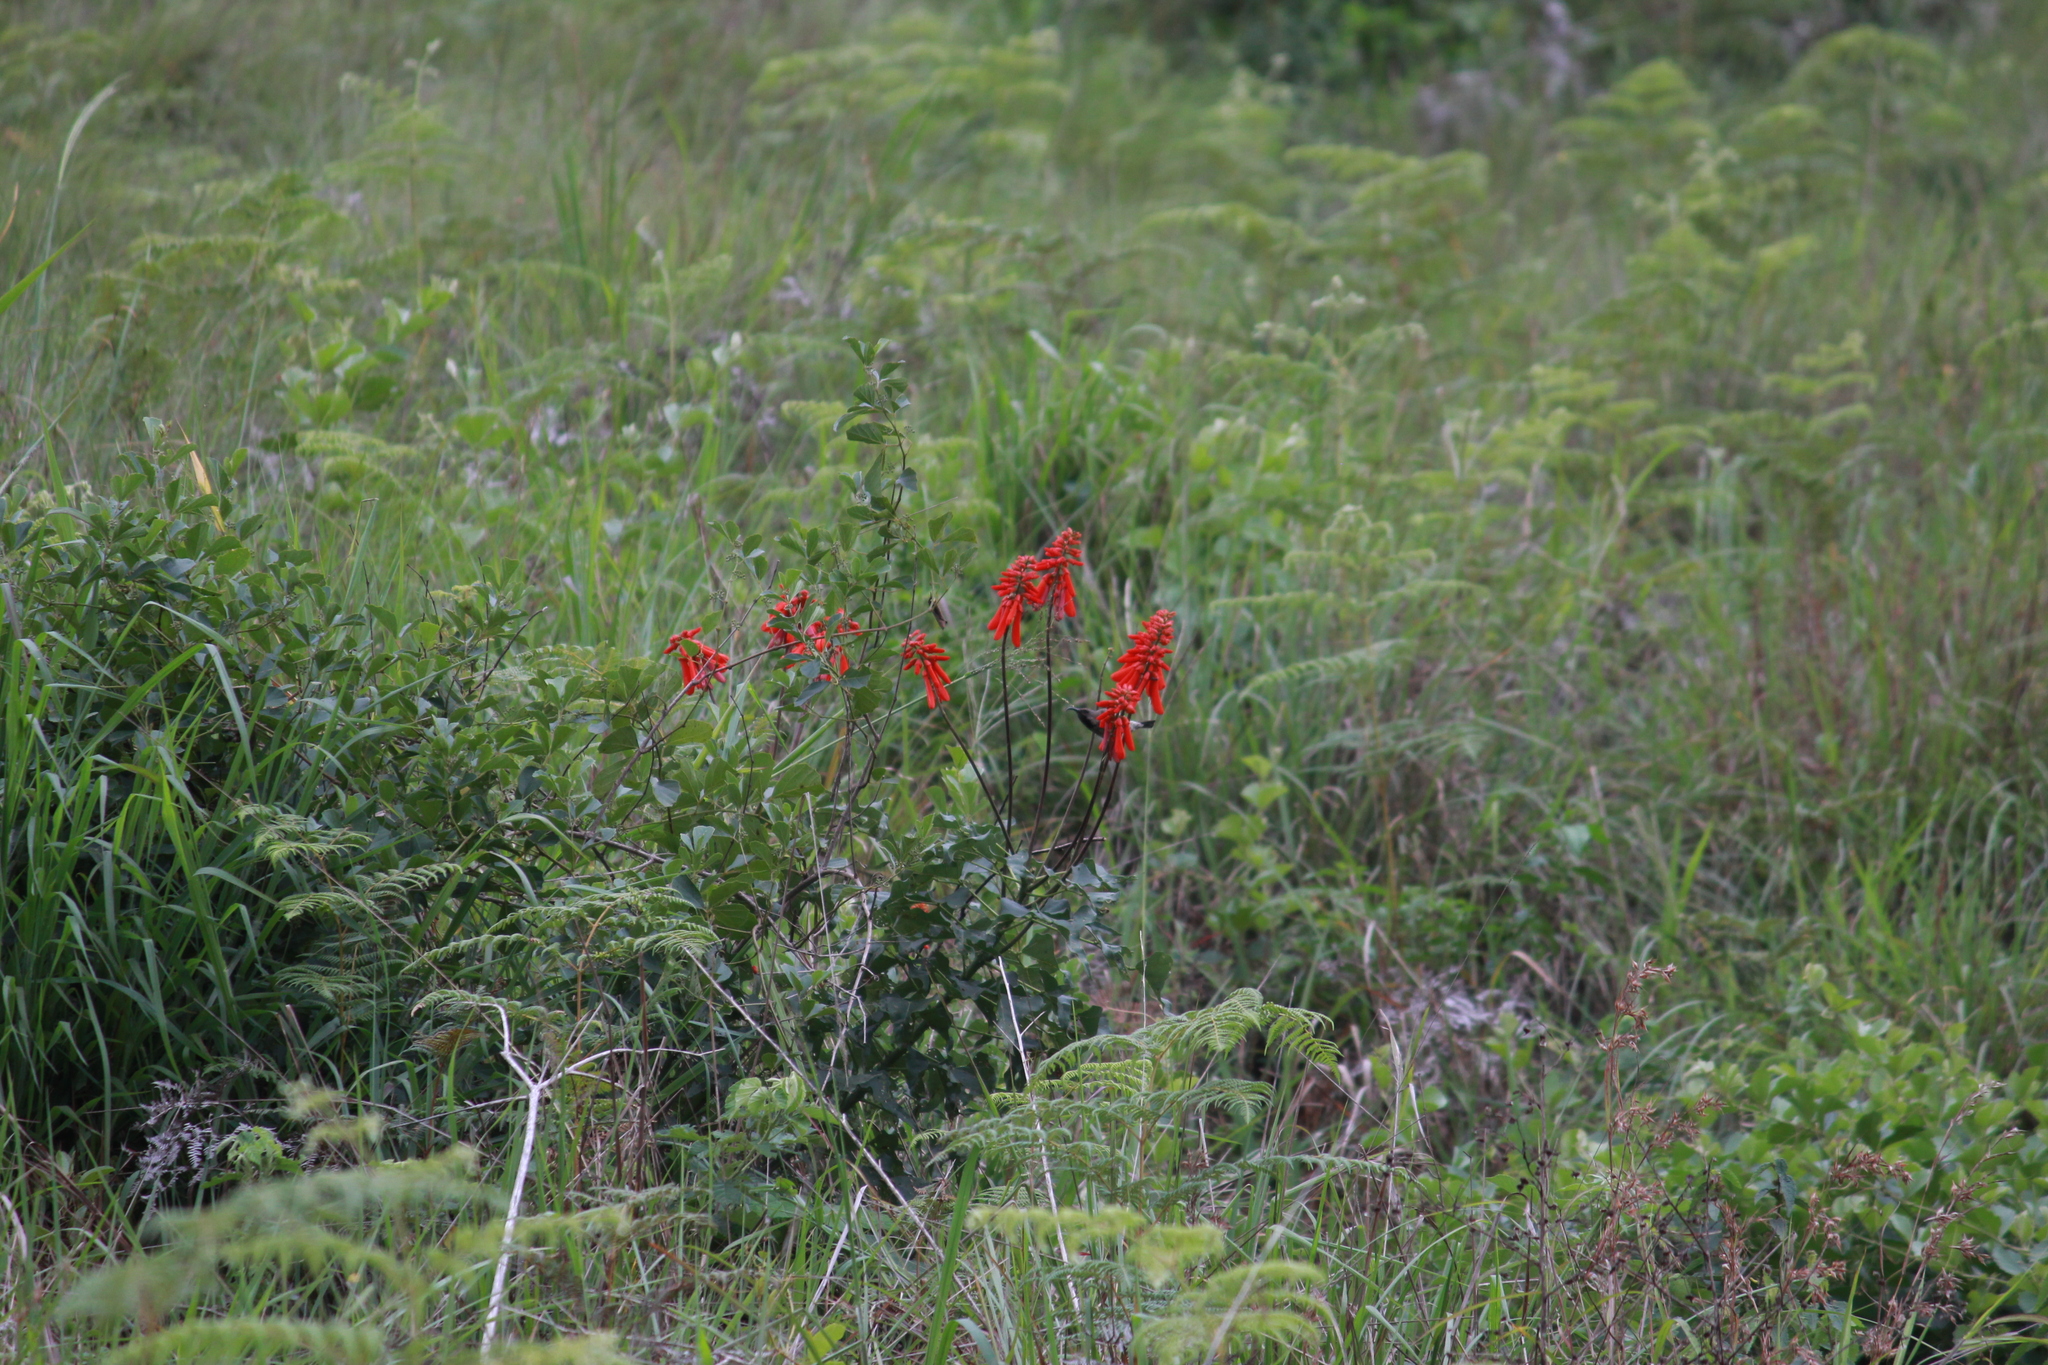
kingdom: Plantae
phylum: Tracheophyta
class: Magnoliopsida
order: Fabales
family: Fabaceae
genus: Erythrina
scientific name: Erythrina humeana
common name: Dwarf coral tree
